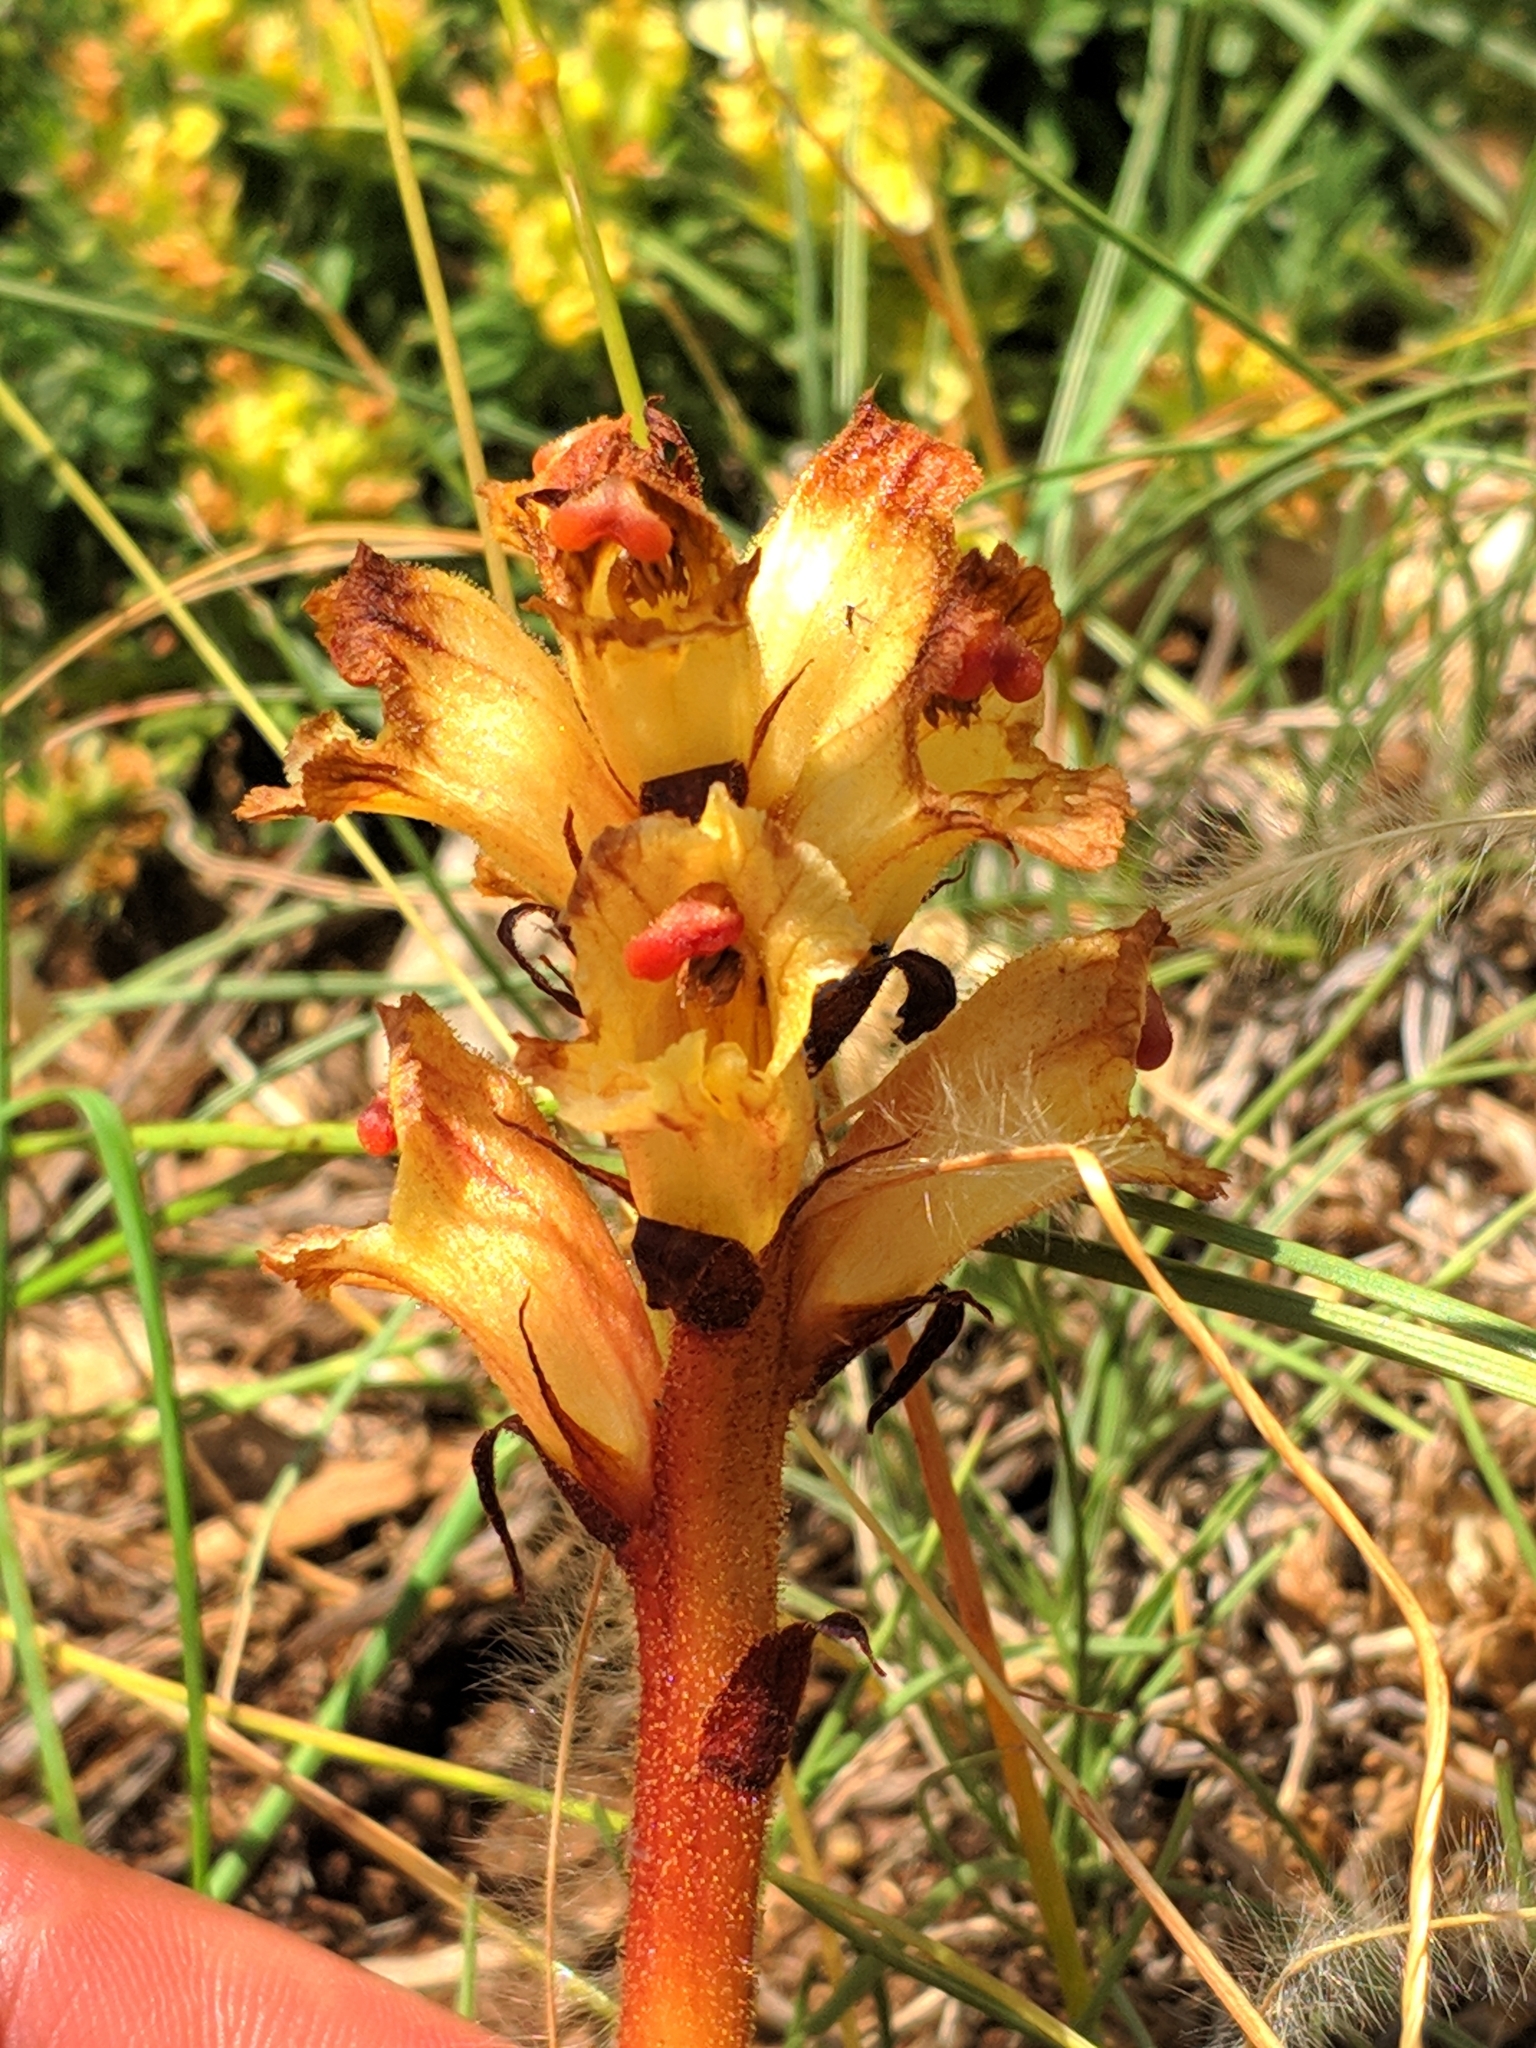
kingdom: Plantae
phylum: Tracheophyta
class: Magnoliopsida
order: Lamiales
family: Orobanchaceae
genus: Orobanche
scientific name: Orobanche alba
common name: Thyme broomrape
